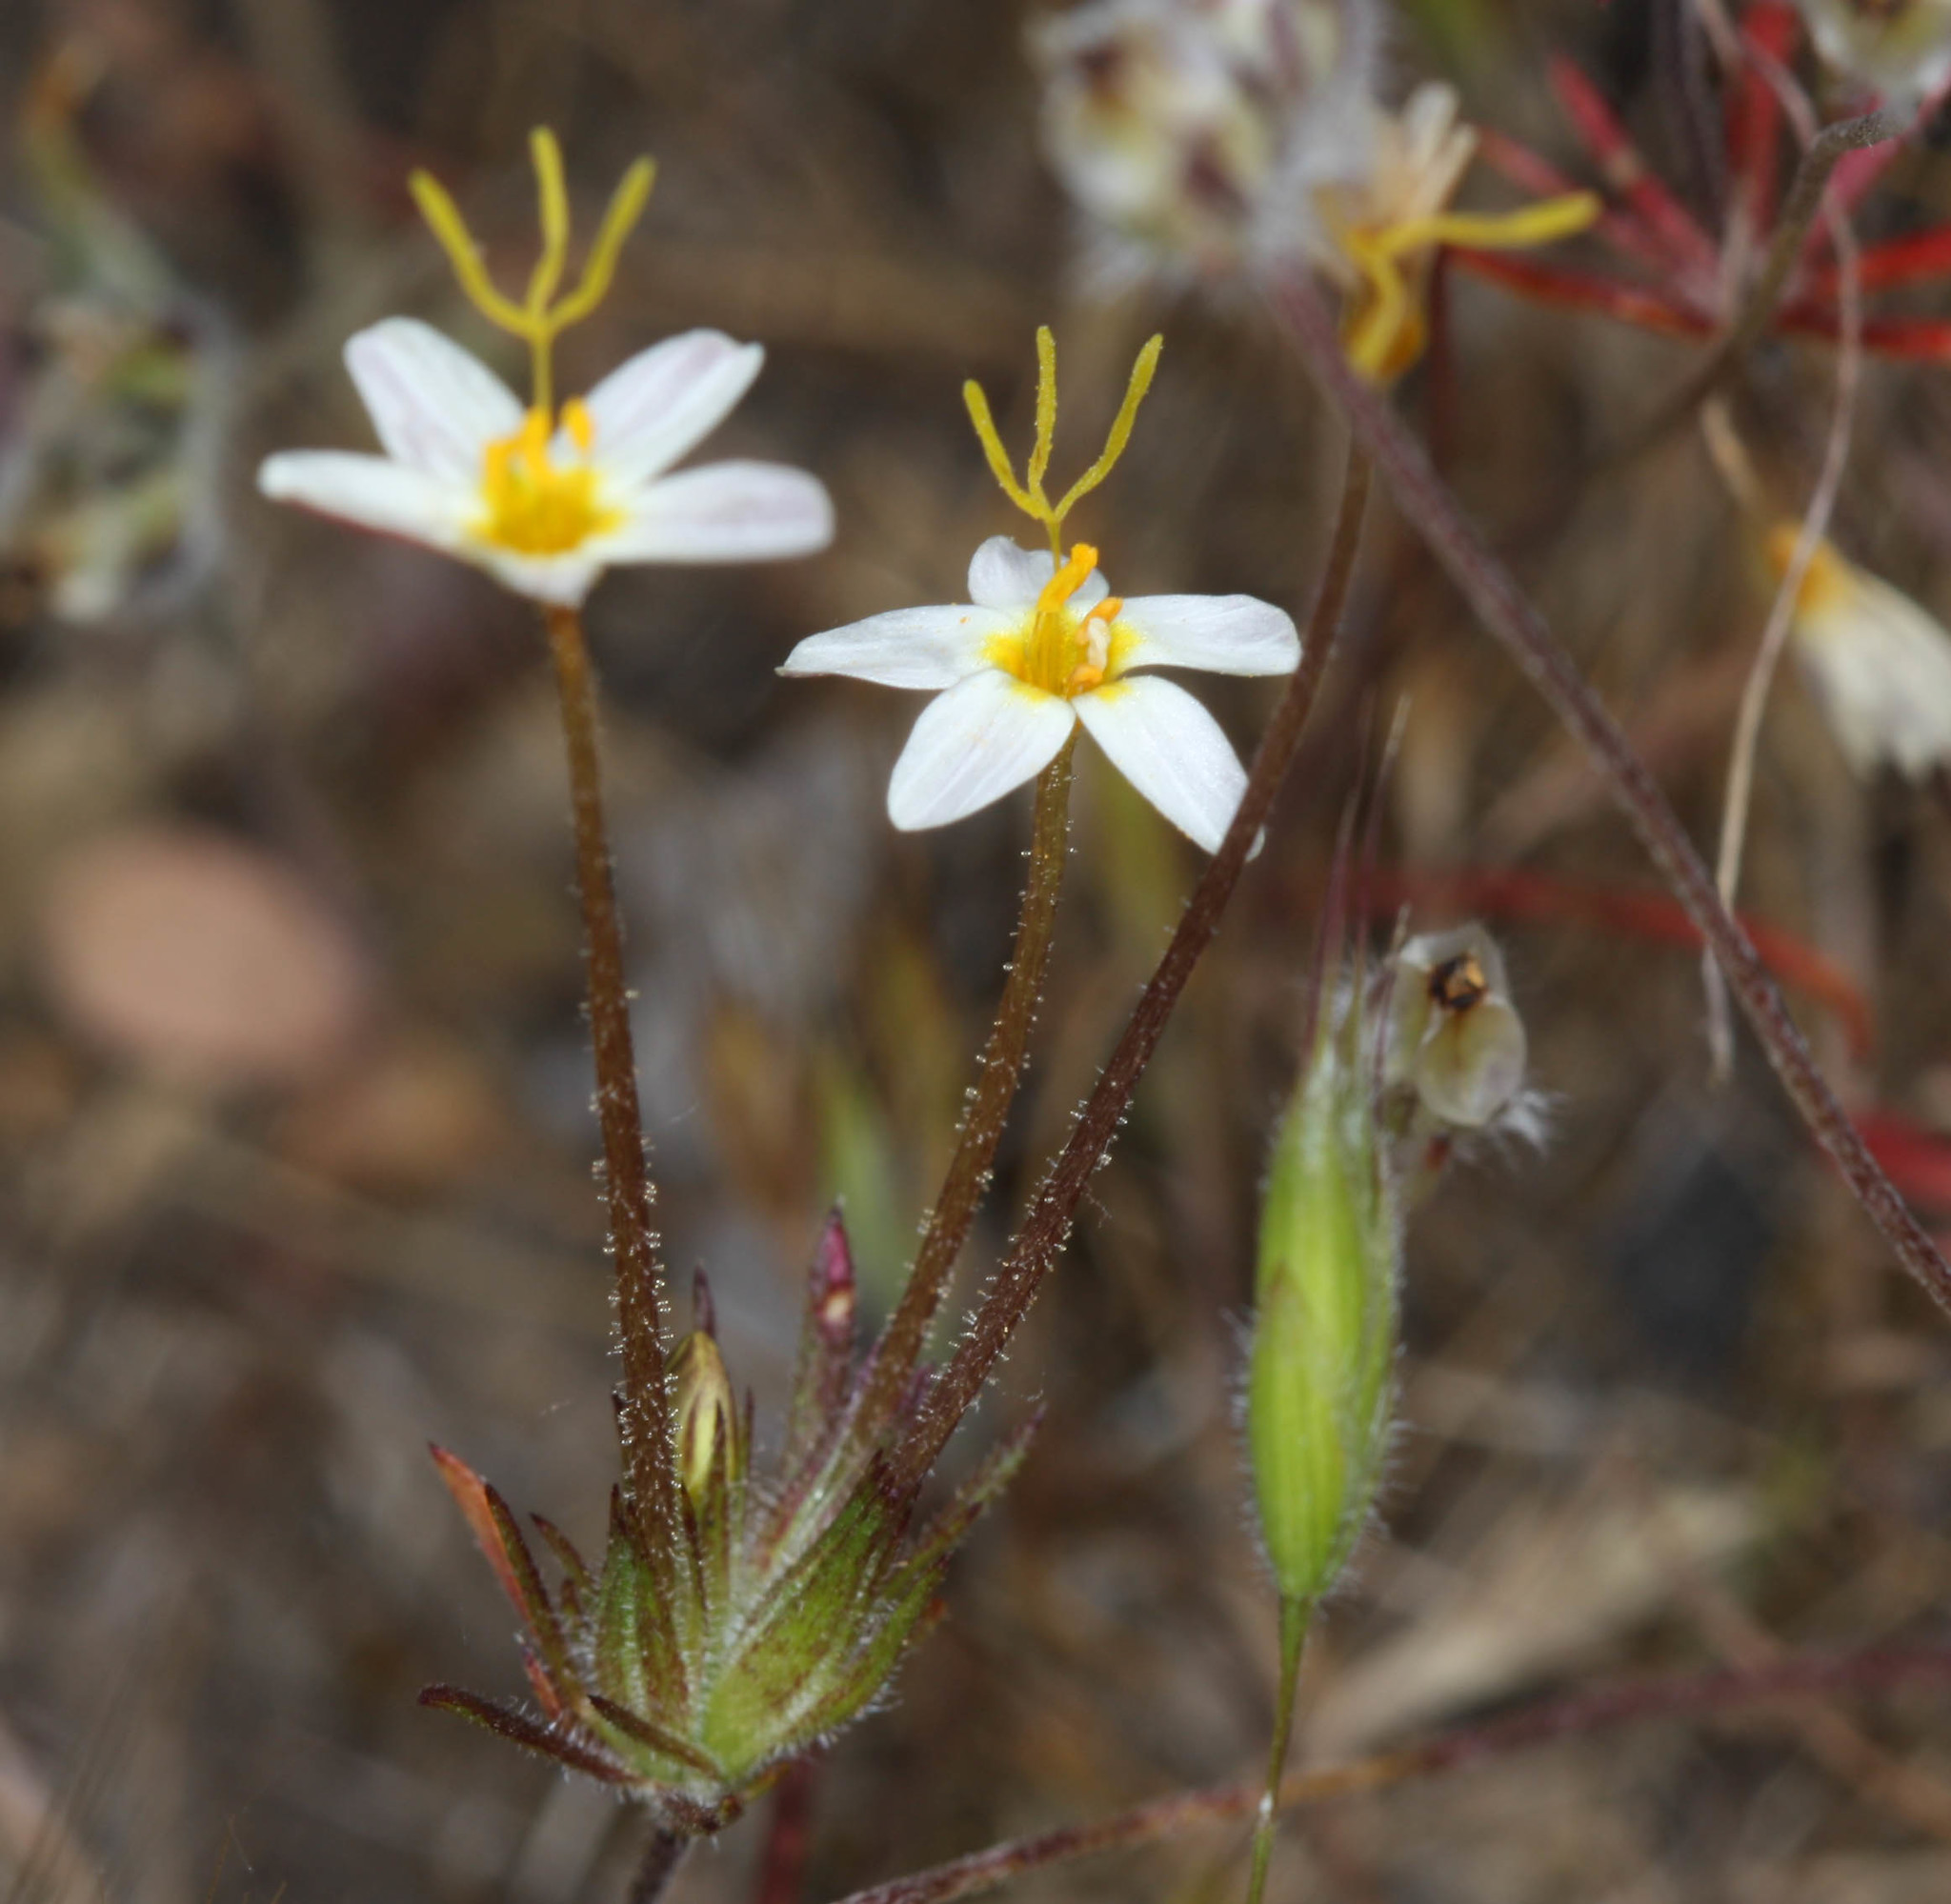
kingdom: Plantae
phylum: Tracheophyta
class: Magnoliopsida
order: Ericales
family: Polemoniaceae
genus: Leptosiphon
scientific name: Leptosiphon parviflorus
